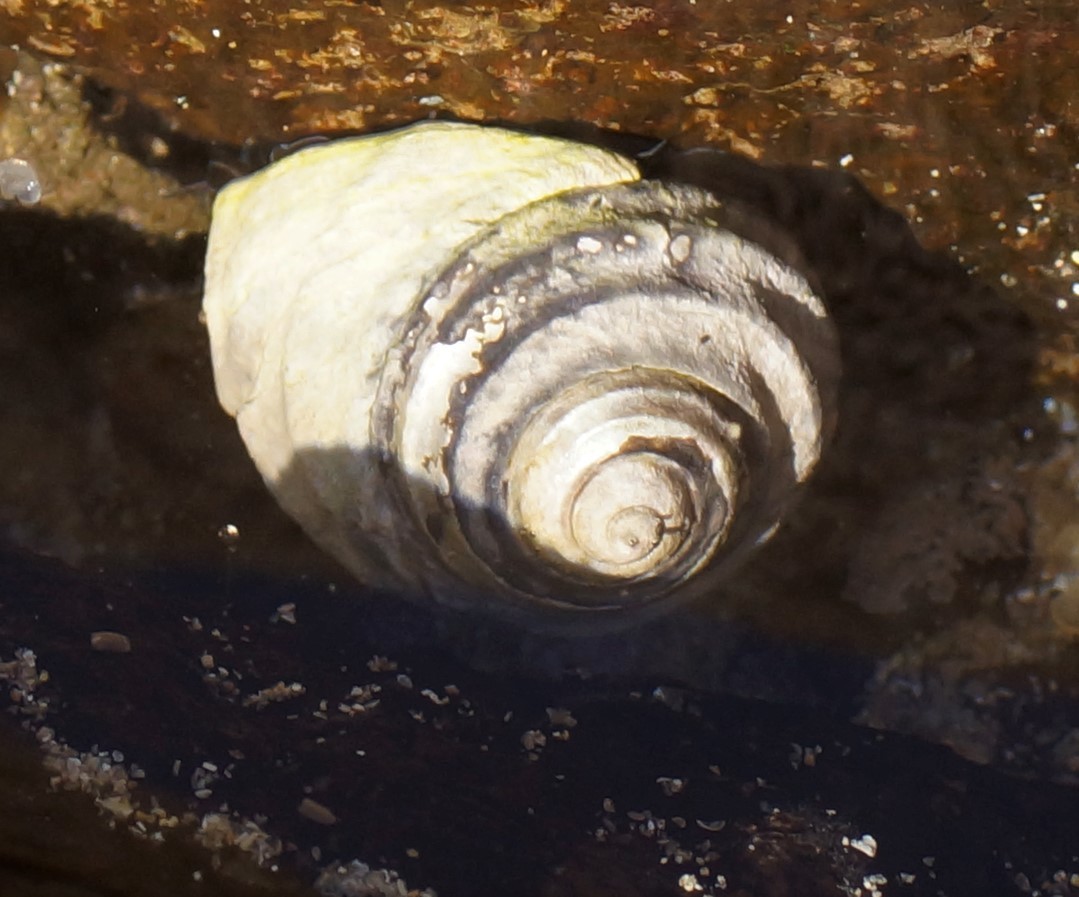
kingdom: Animalia
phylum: Mollusca
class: Gastropoda
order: Trochida
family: Trochidae
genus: Austrocochlea
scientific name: Austrocochlea constricta
